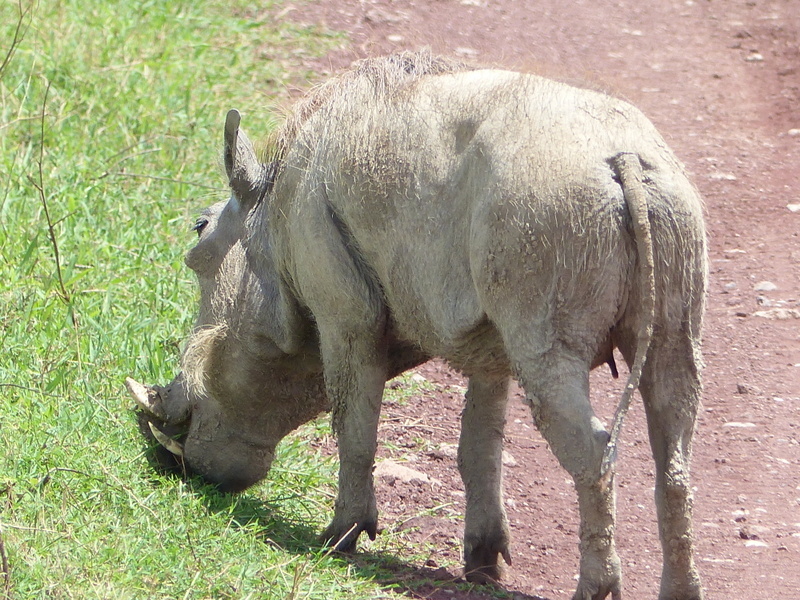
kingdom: Animalia
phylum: Chordata
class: Mammalia
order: Artiodactyla
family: Suidae
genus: Phacochoerus
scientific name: Phacochoerus africanus
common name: Common warthog
